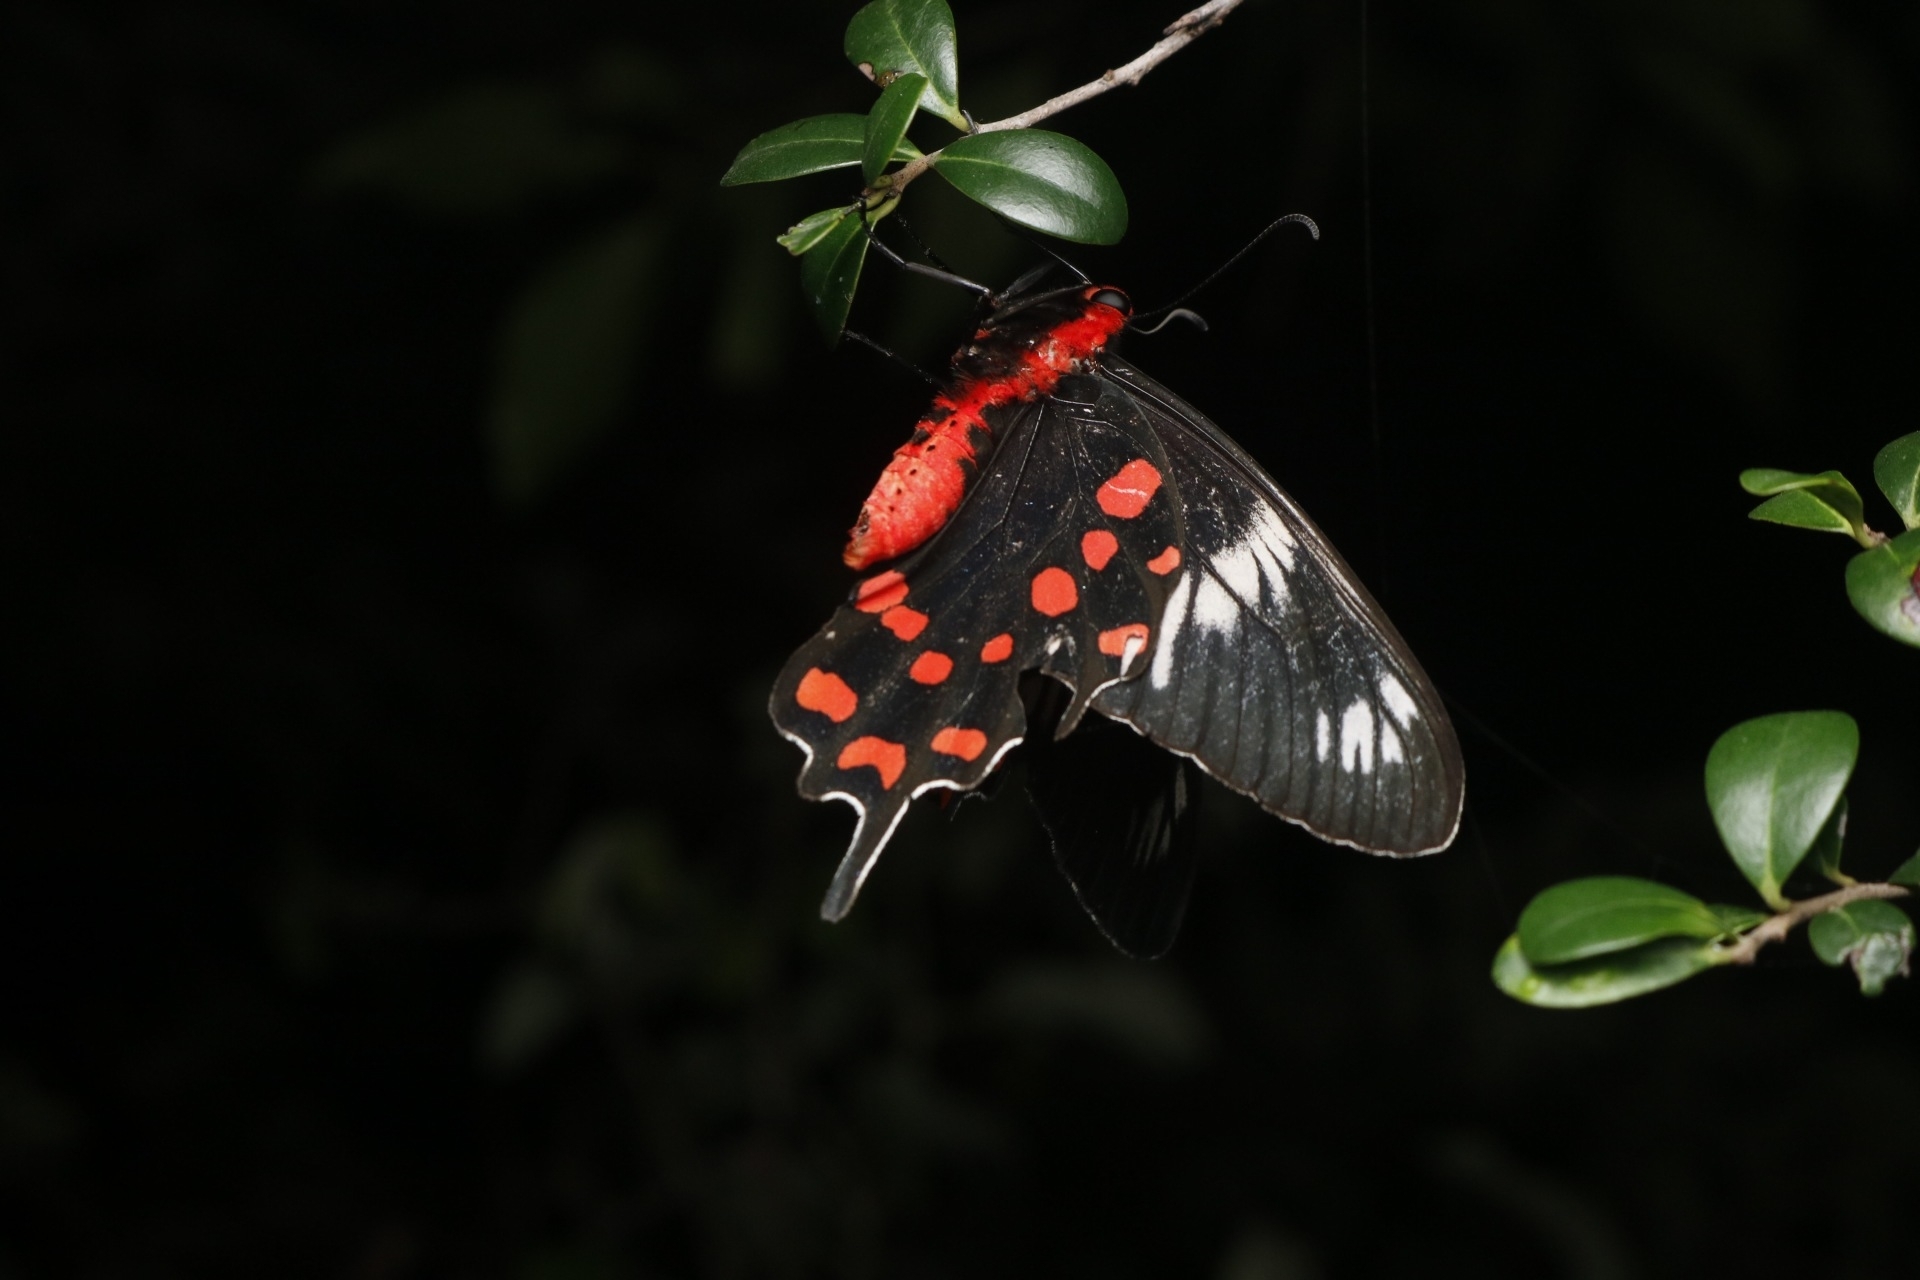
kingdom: Animalia
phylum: Arthropoda
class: Insecta
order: Lepidoptera
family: Papilionidae
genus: Pachliopta
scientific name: Pachliopta hector
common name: Crimson rose
